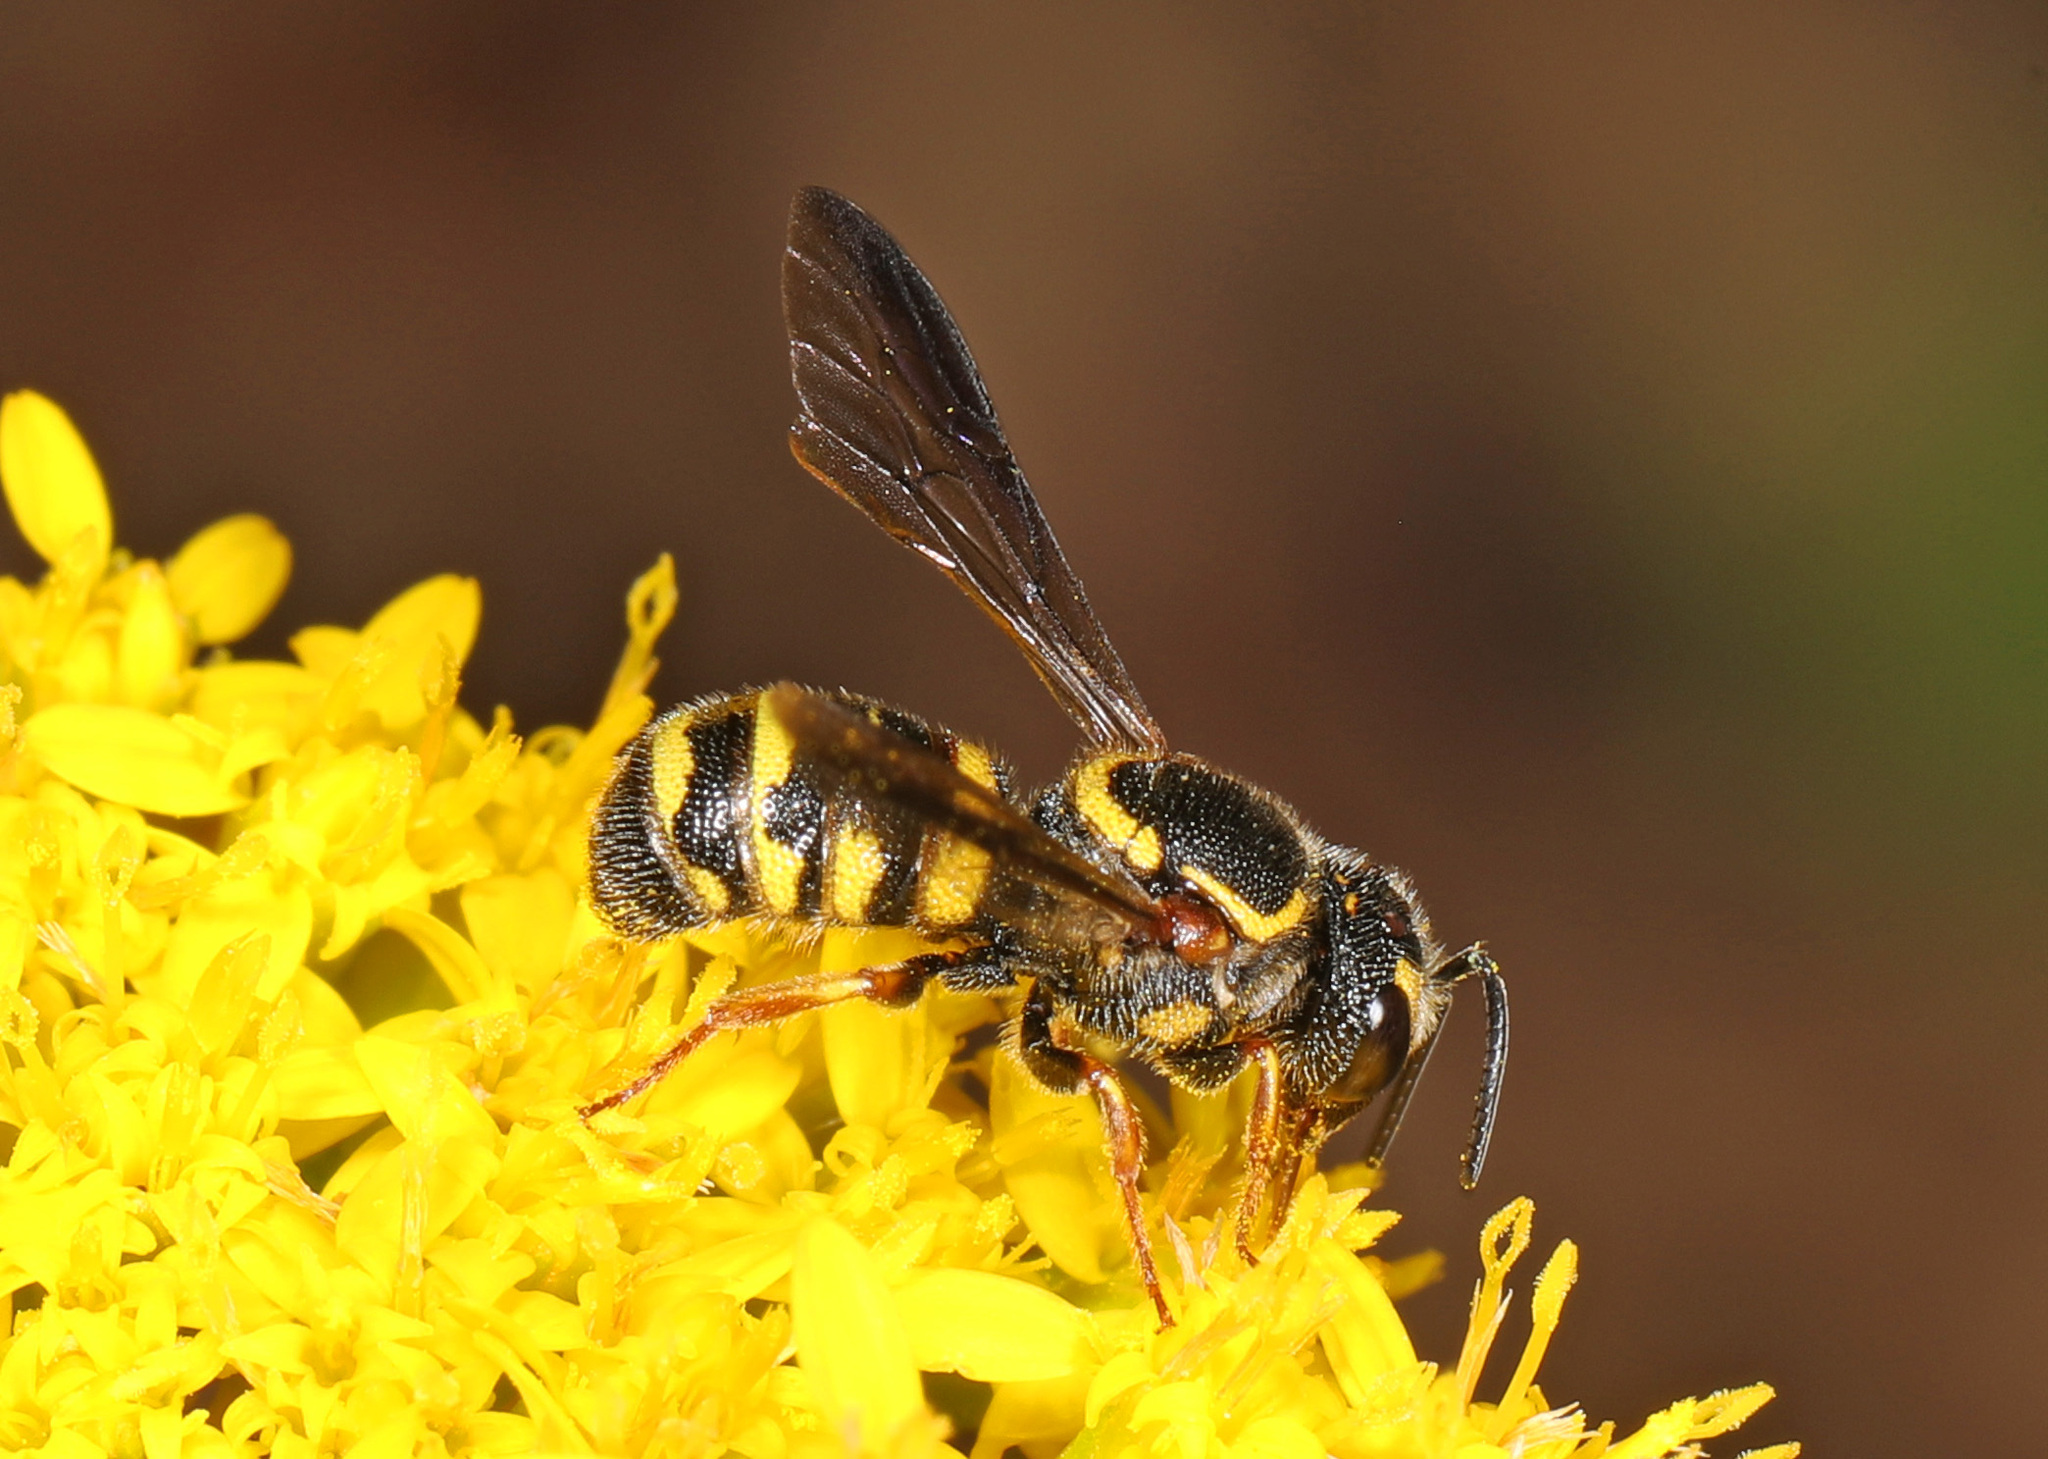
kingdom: Animalia
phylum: Arthropoda
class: Insecta
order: Hymenoptera
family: Megachilidae
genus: Stelis
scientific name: Stelis louisae
